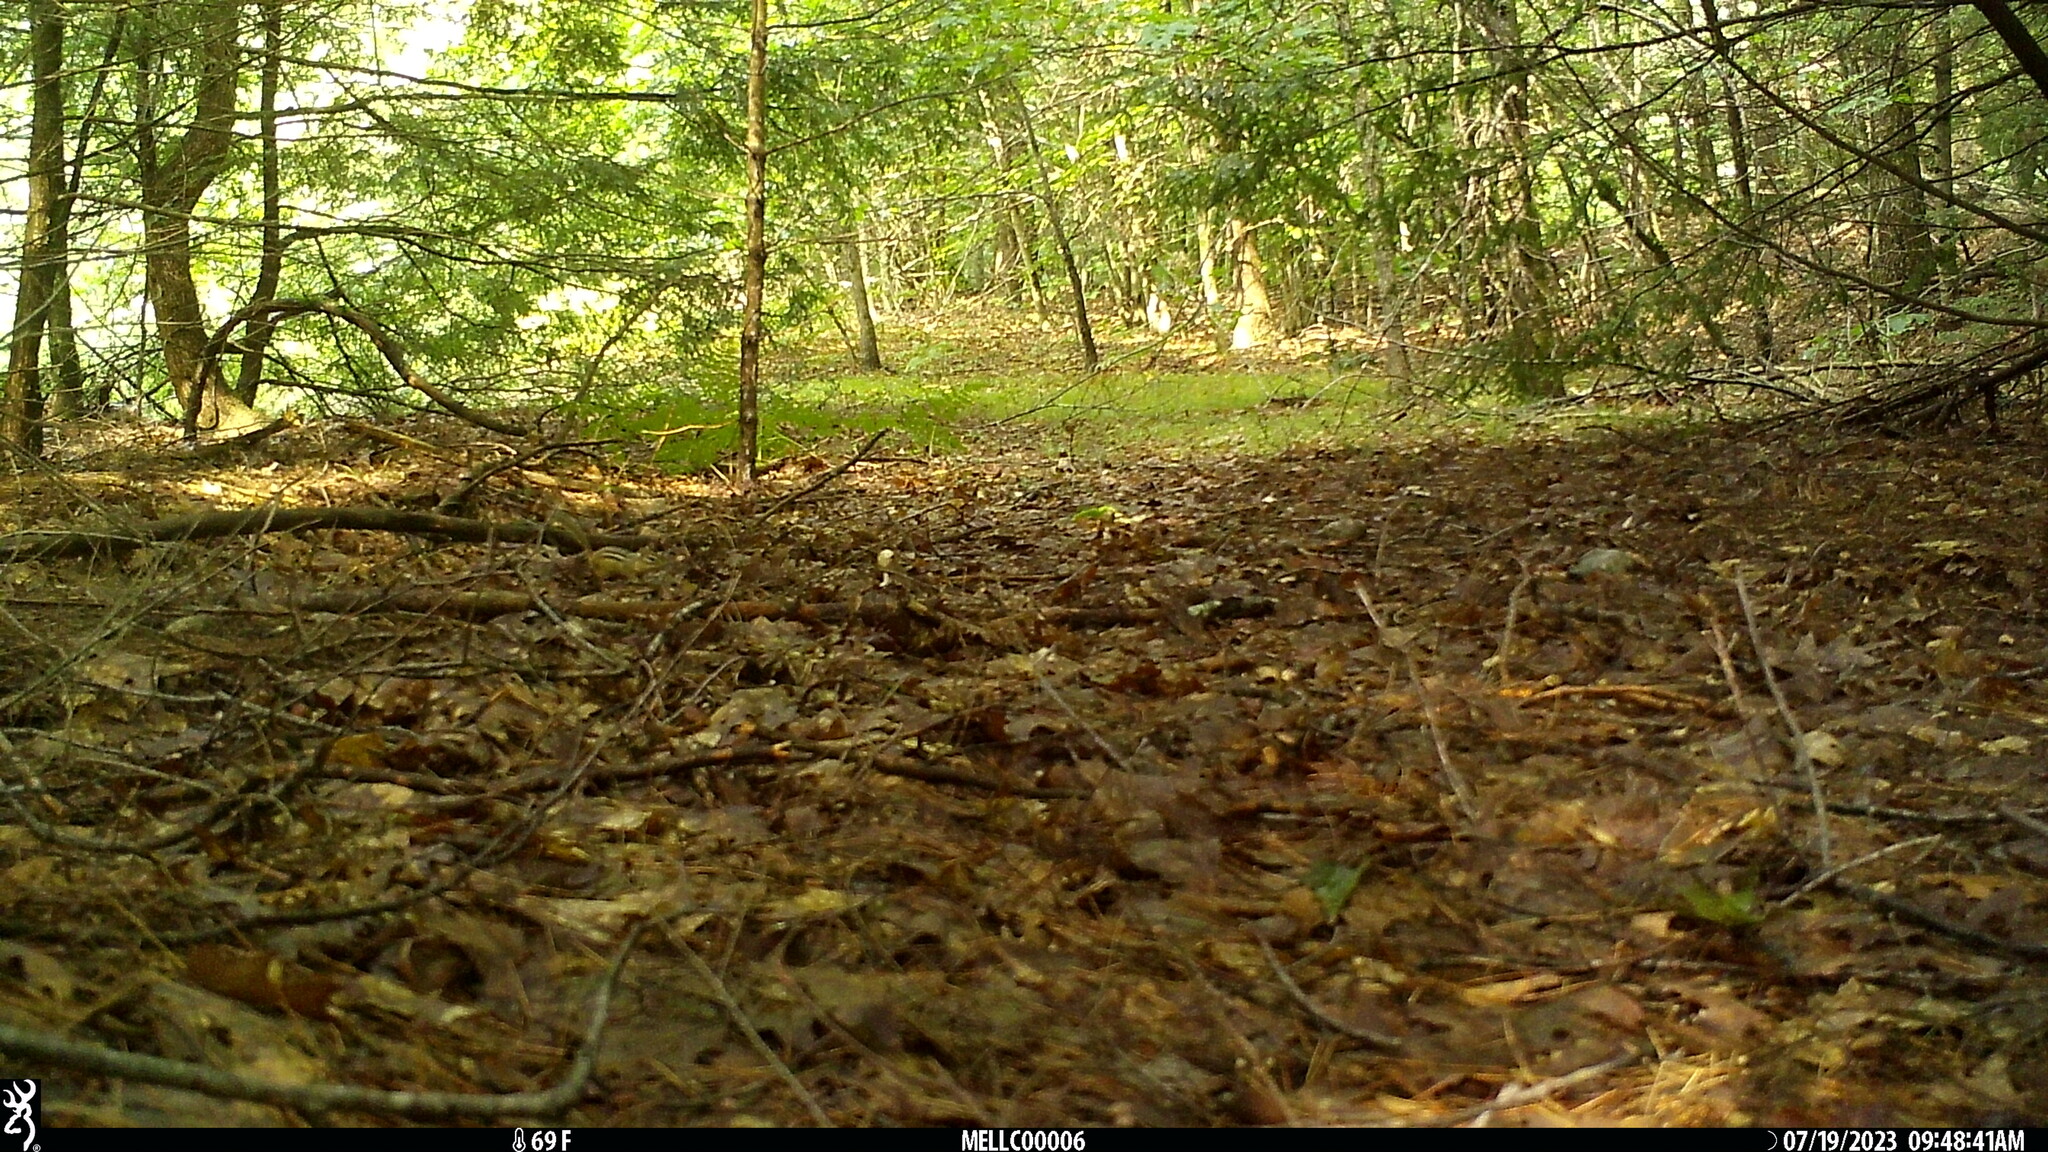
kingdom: Animalia
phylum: Chordata
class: Mammalia
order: Rodentia
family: Sciuridae
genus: Tamias
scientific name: Tamias striatus
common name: Eastern chipmunk
